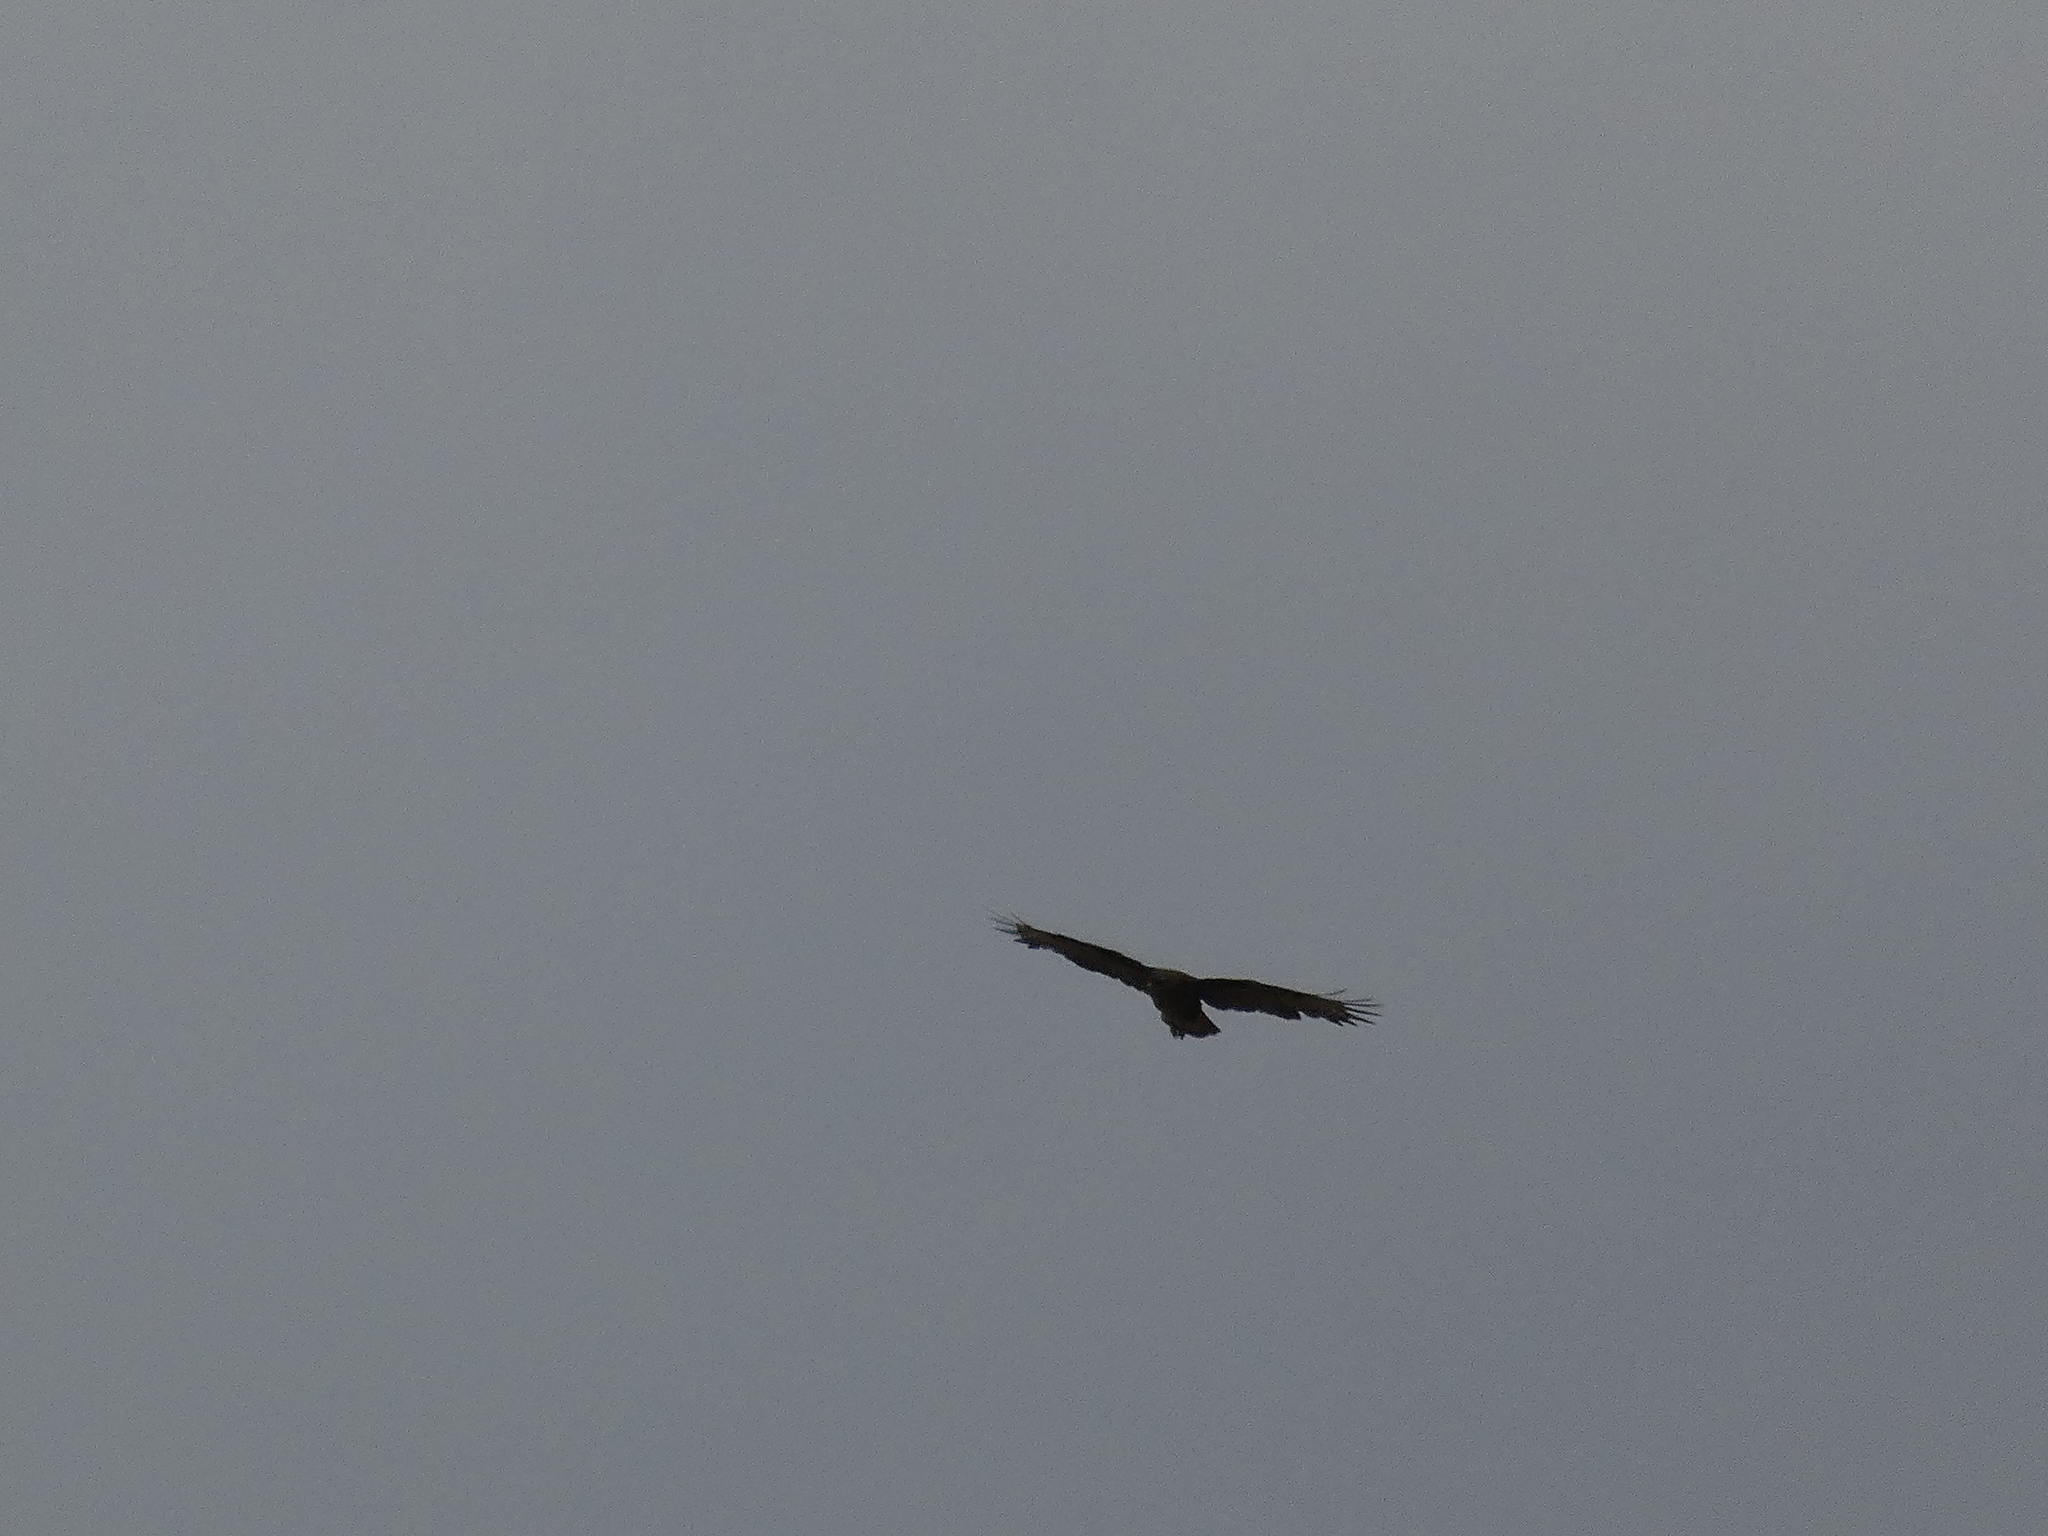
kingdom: Animalia
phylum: Chordata
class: Aves
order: Accipitriformes
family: Accipitridae
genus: Buteo
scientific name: Buteo buteo
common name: Common buzzard
